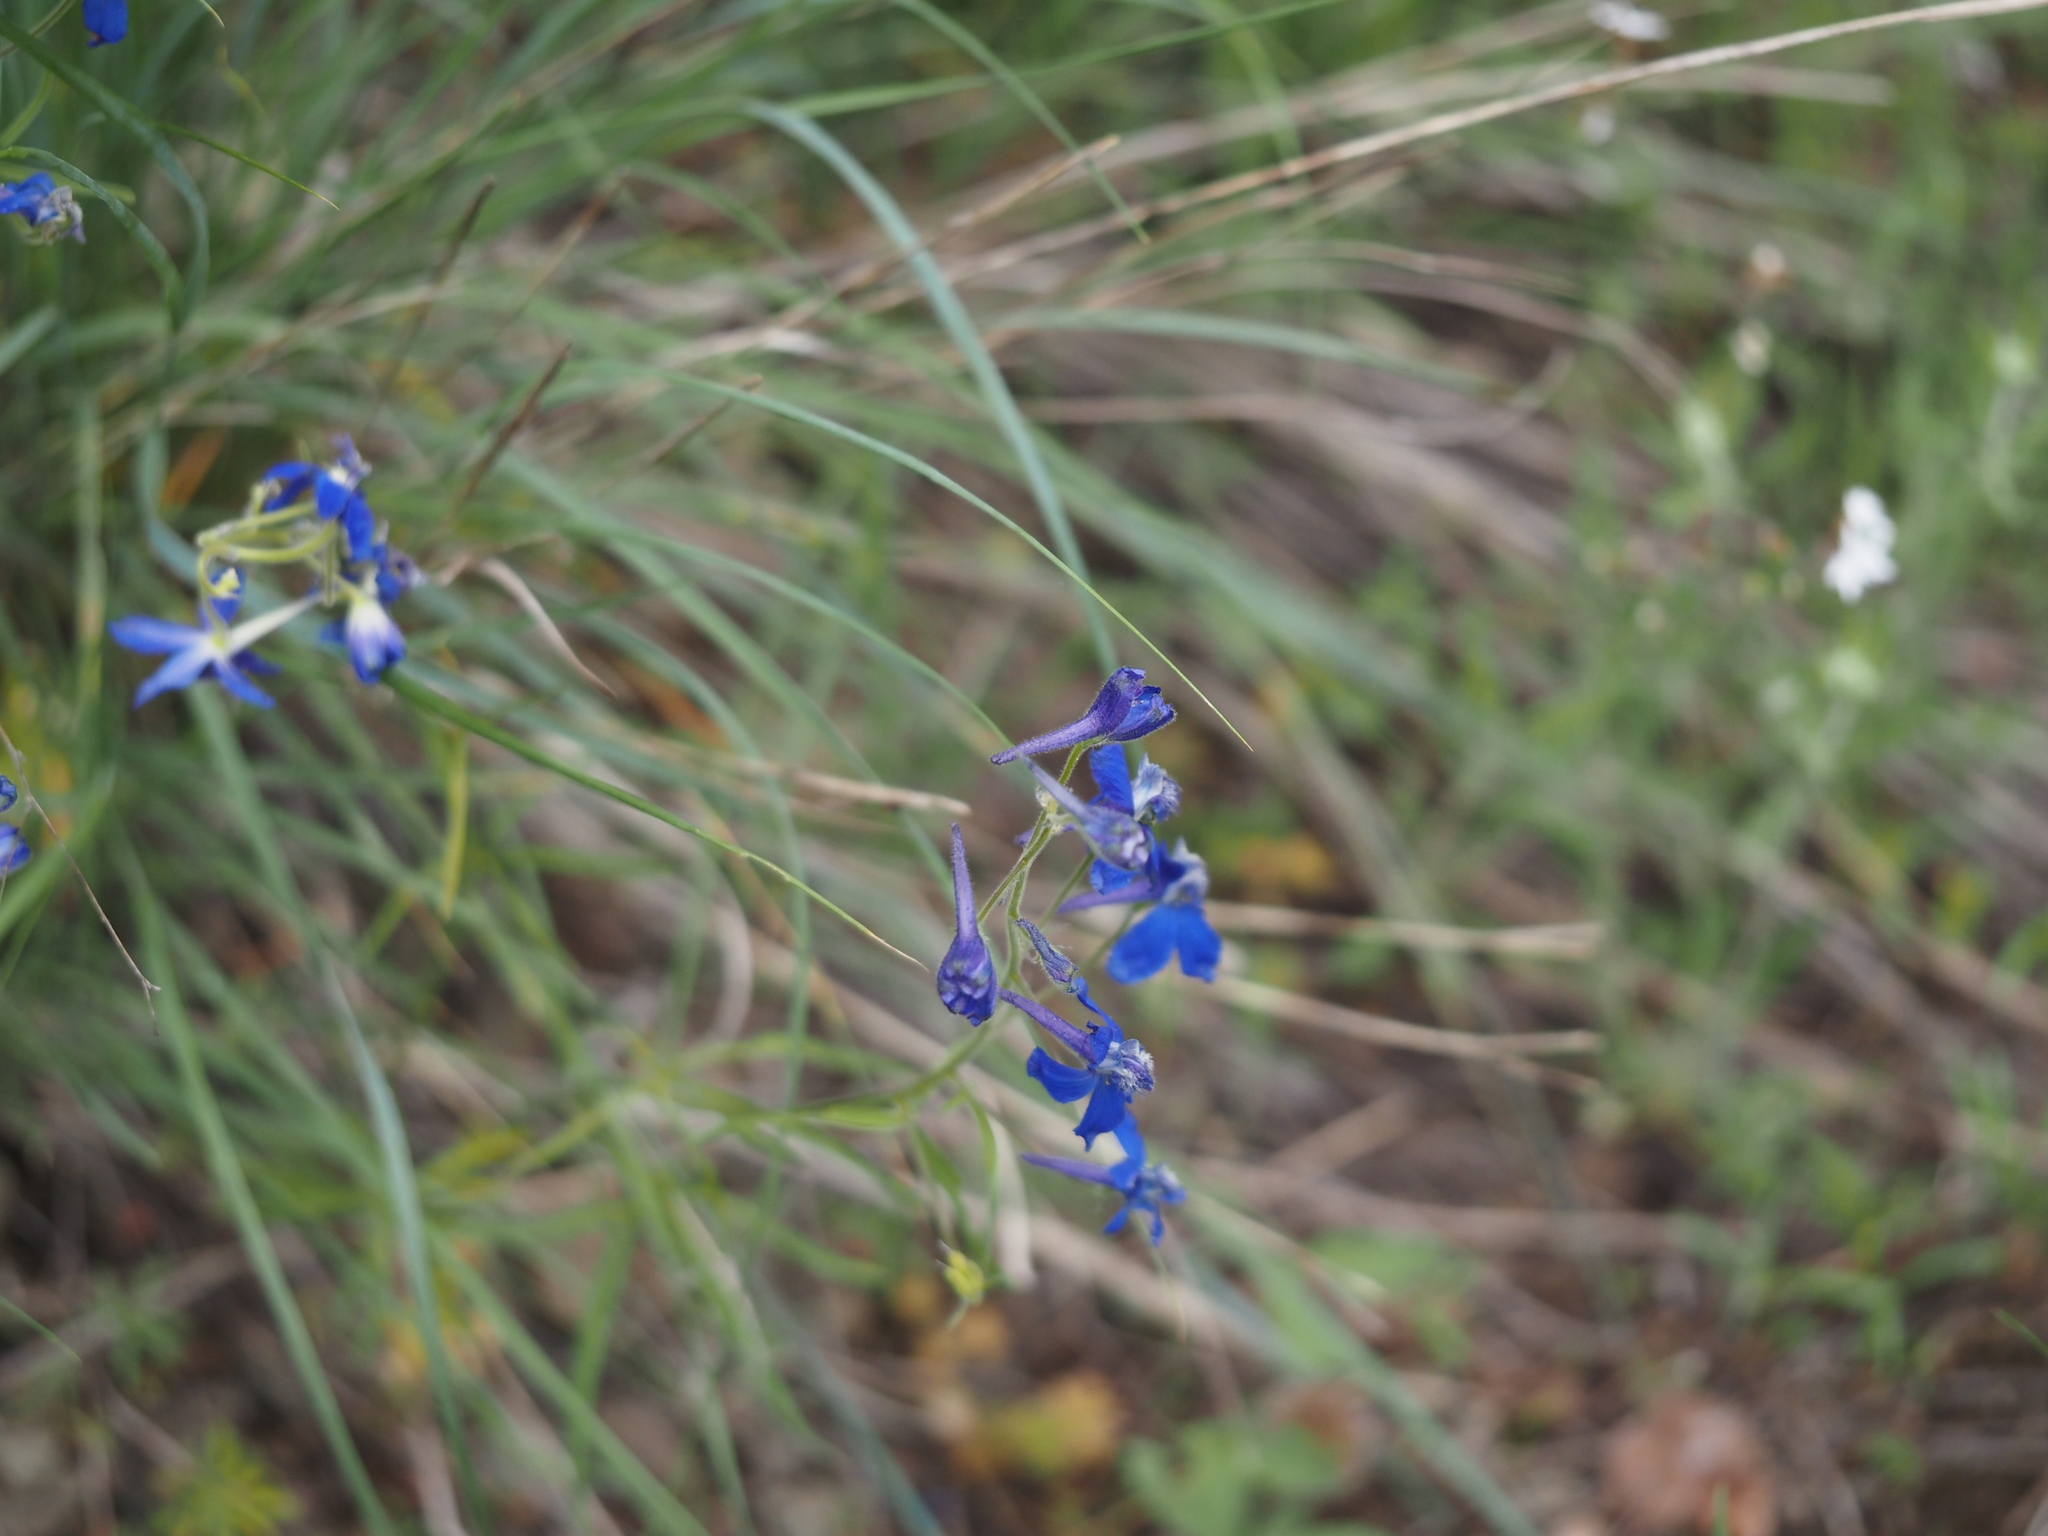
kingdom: Plantae
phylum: Tracheophyta
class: Magnoliopsida
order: Ranunculales
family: Ranunculaceae
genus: Delphinium
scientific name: Delphinium nuttallianum
